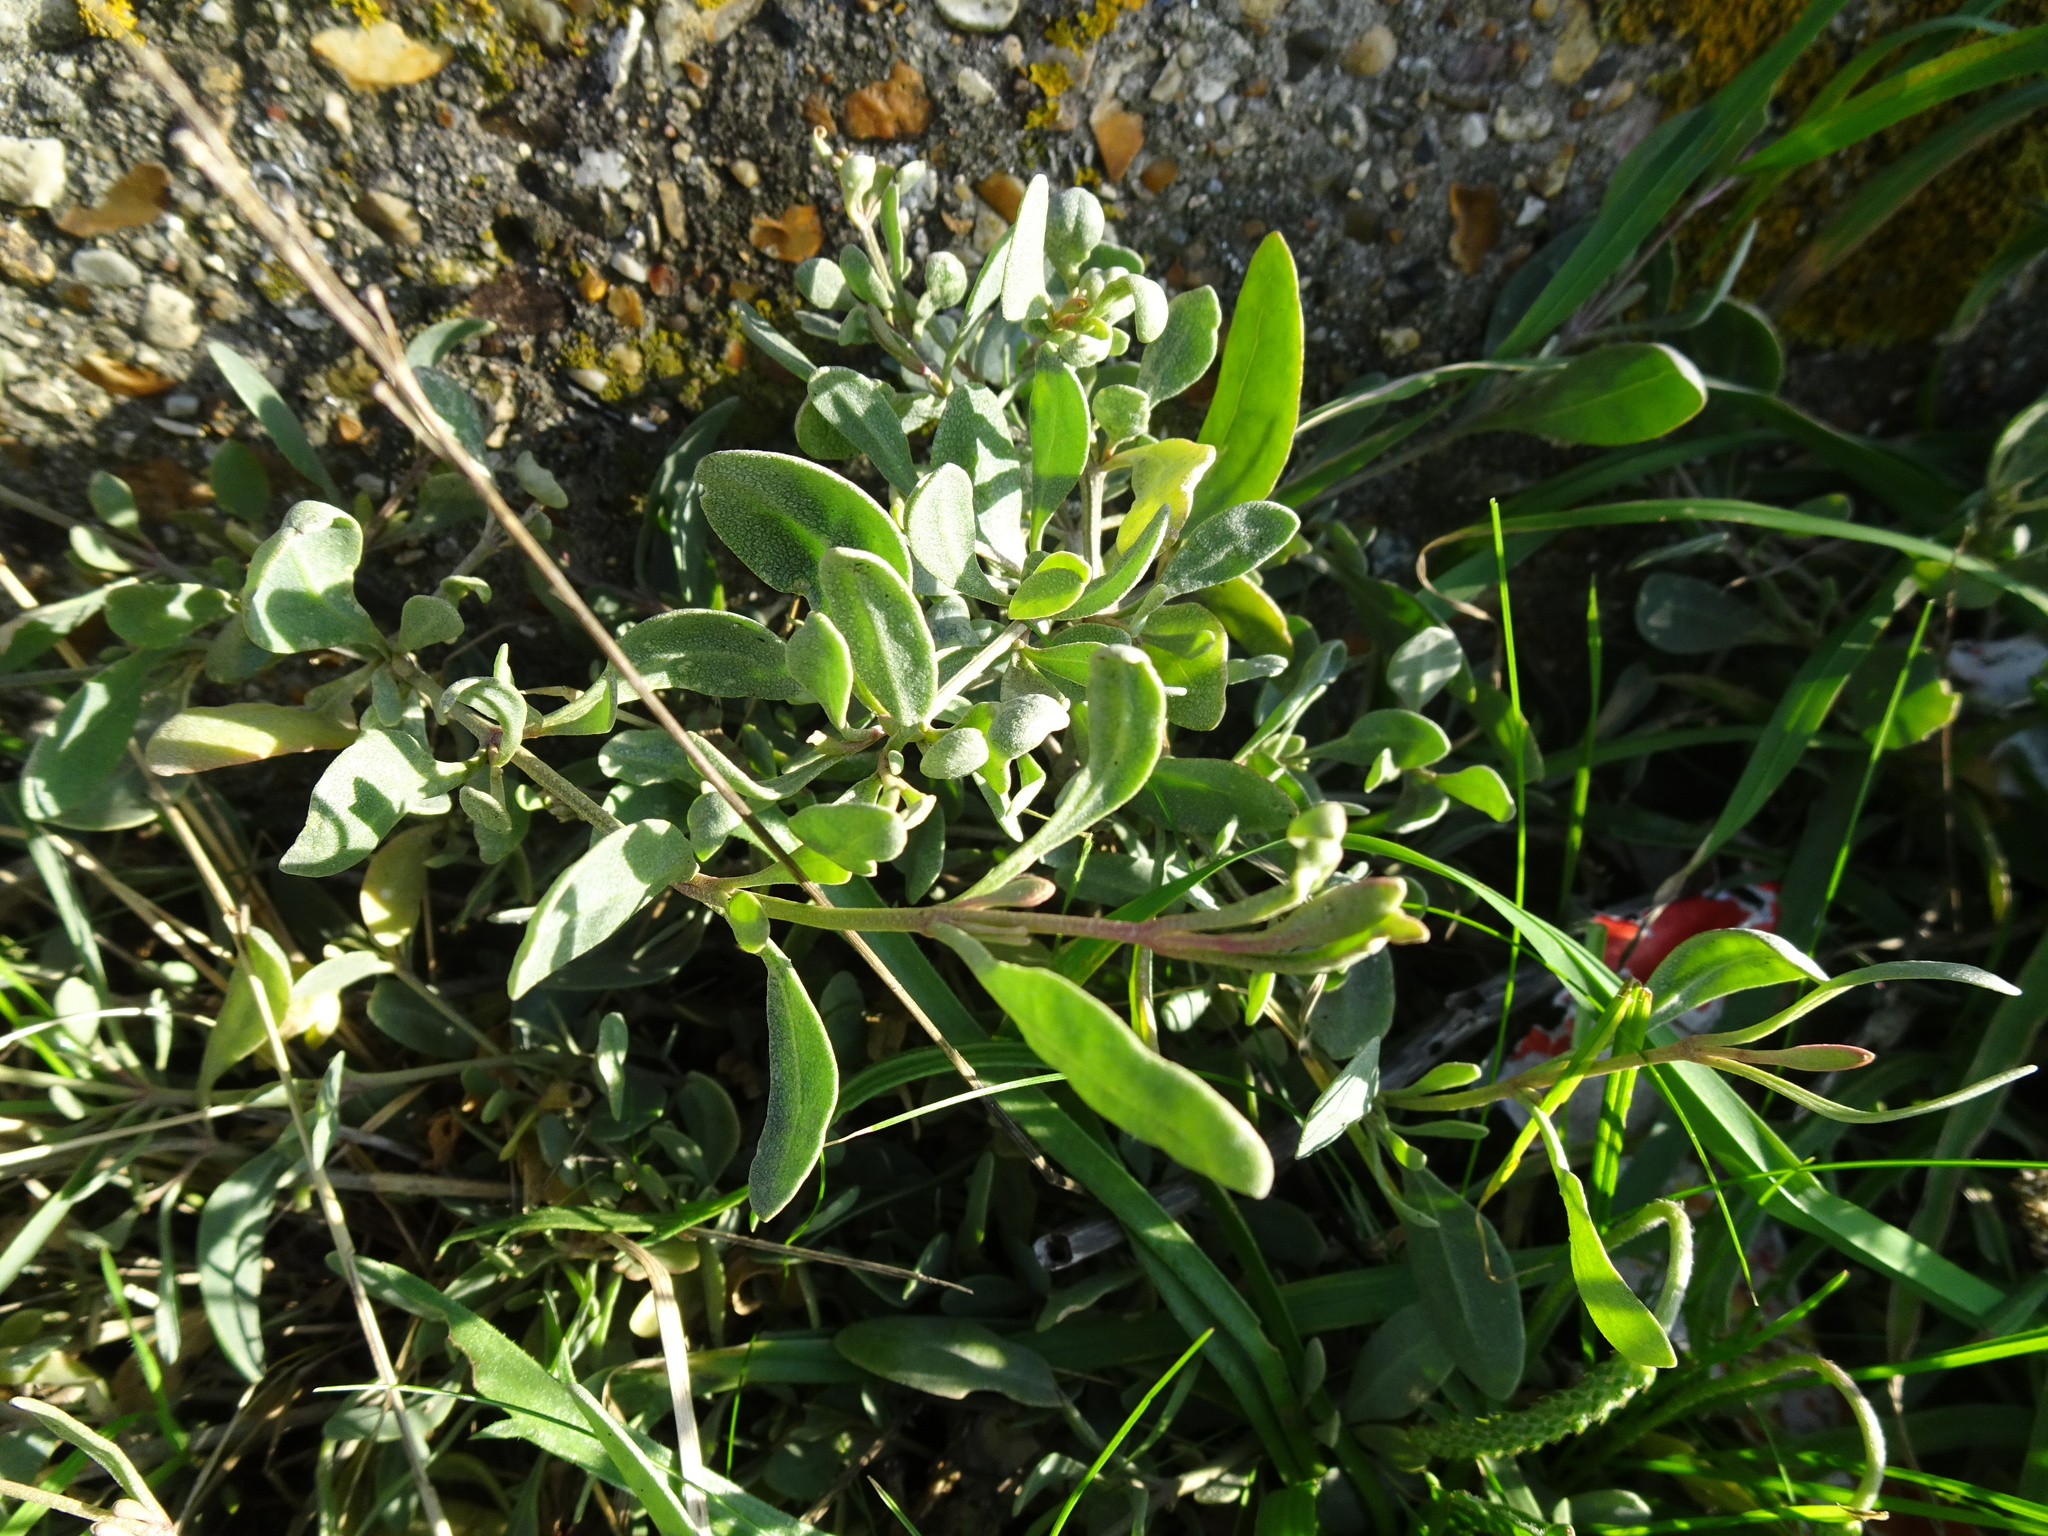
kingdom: Plantae
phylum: Tracheophyta
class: Magnoliopsida
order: Caryophyllales
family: Amaranthaceae
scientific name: Amaranthaceae
